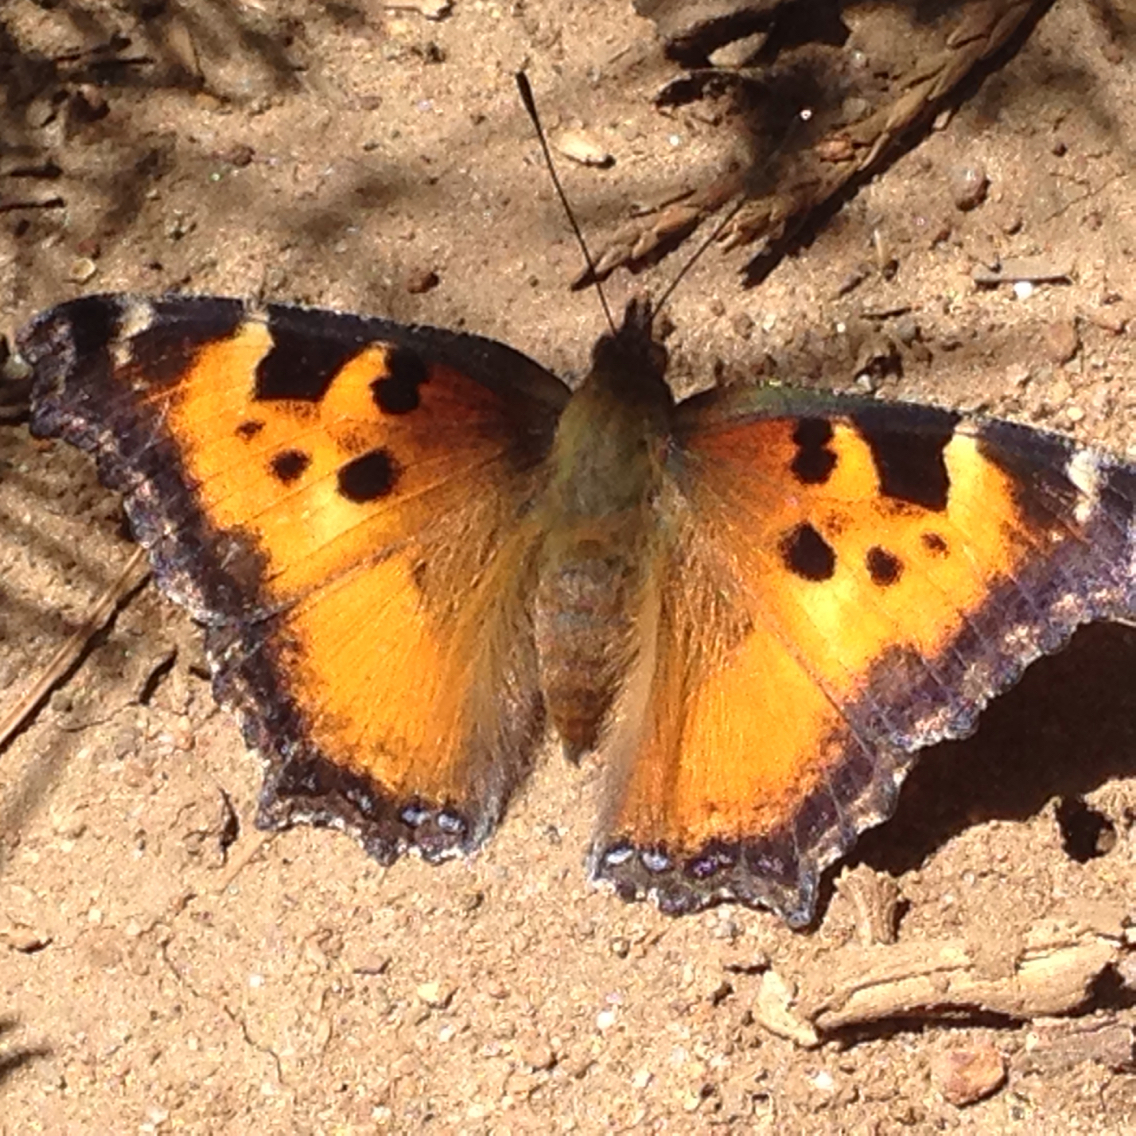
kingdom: Animalia
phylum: Arthropoda
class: Insecta
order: Lepidoptera
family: Nymphalidae
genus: Nymphalis
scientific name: Nymphalis californica
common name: California tortoiseshell
